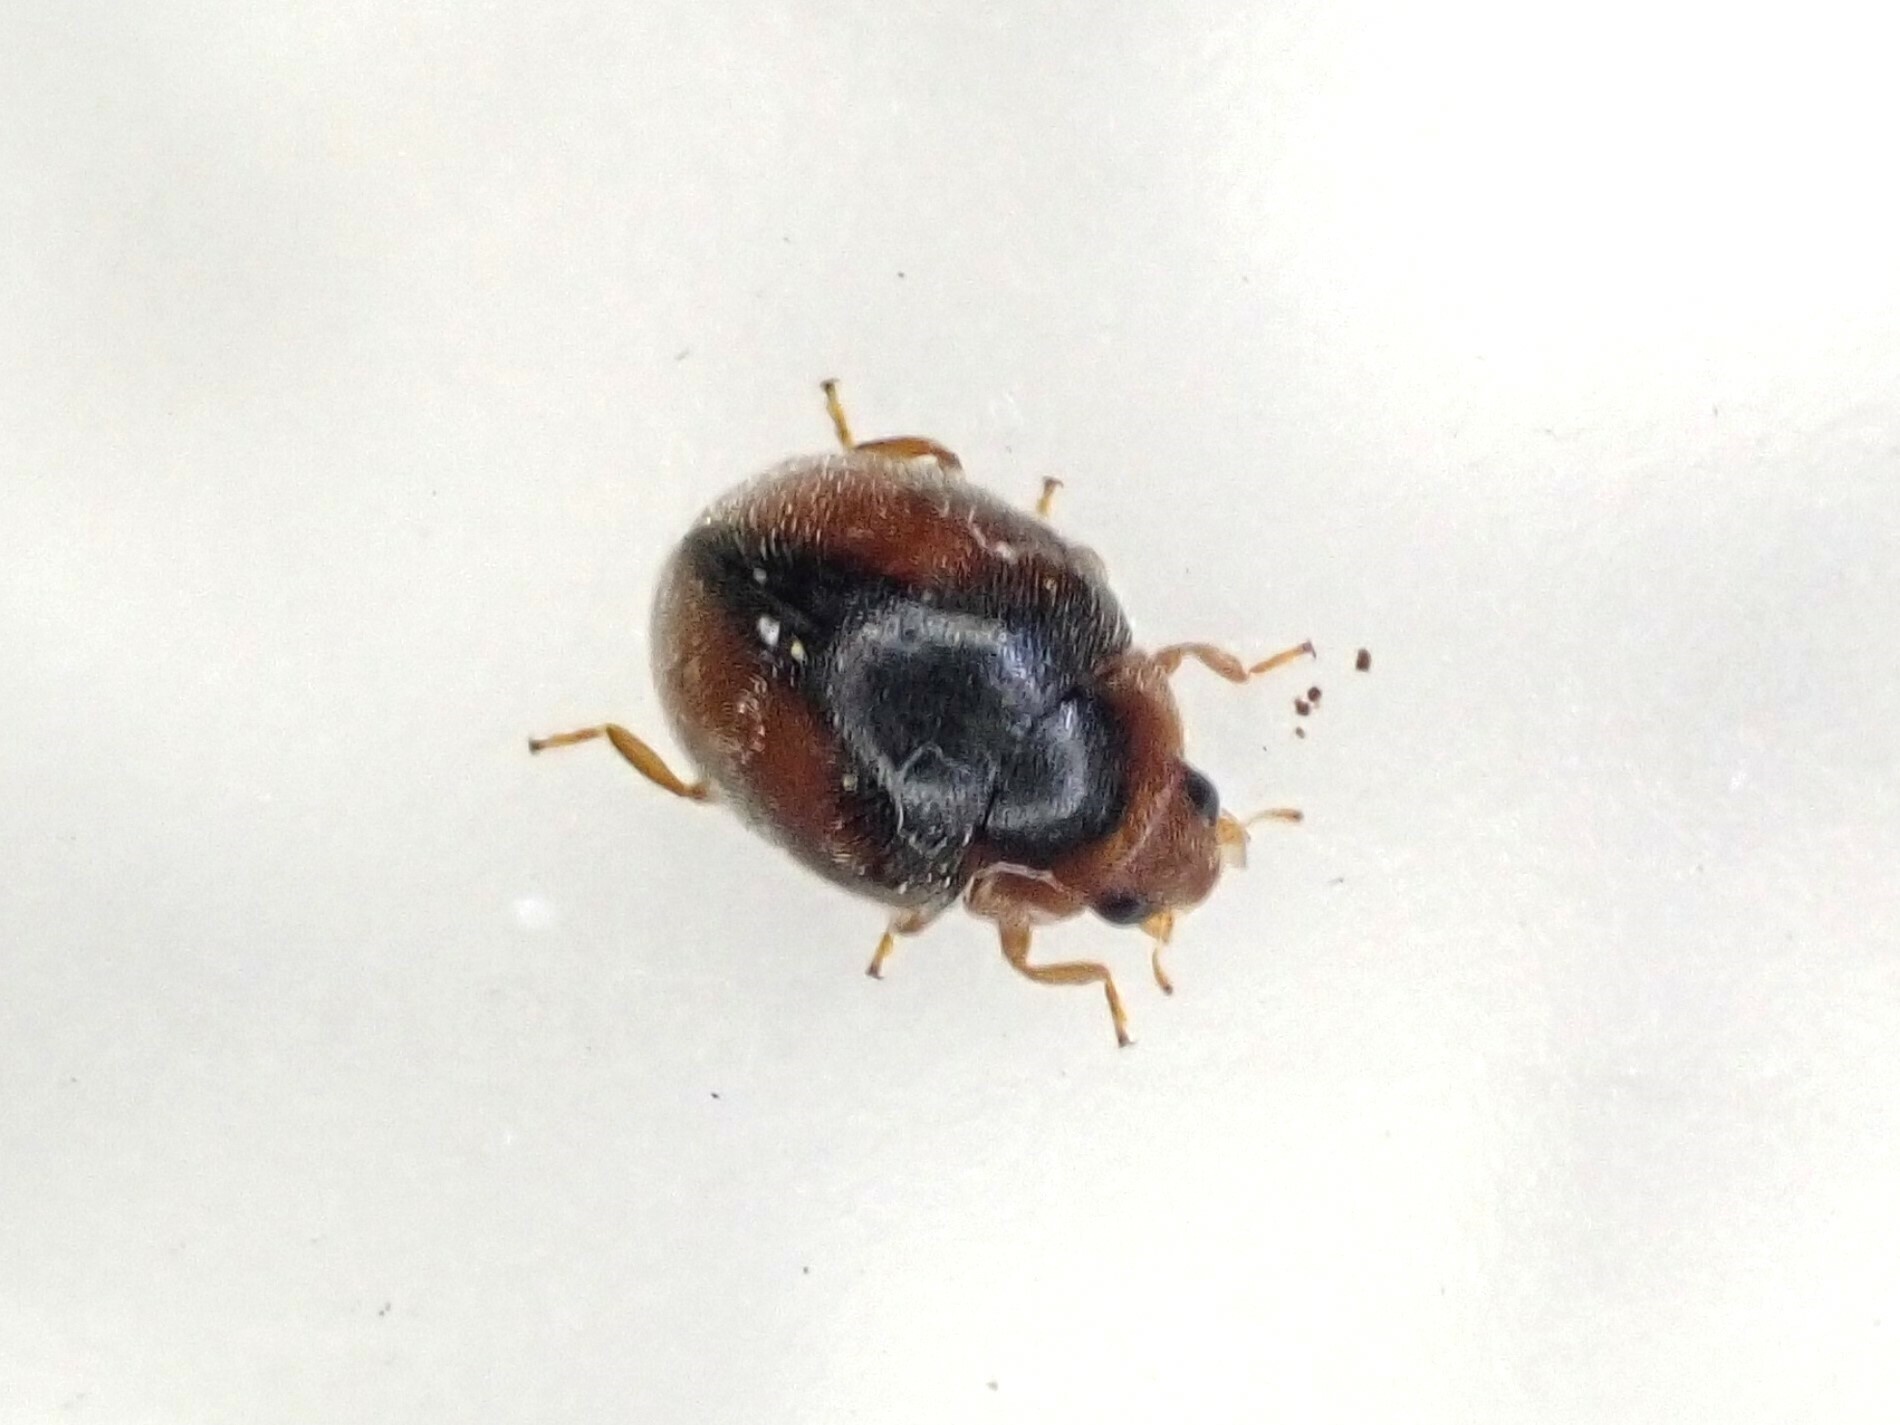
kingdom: Animalia
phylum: Arthropoda
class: Insecta
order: Coleoptera
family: Coccinellidae
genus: Scymnus
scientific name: Scymnus loewii
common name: Dusky lady beetle
